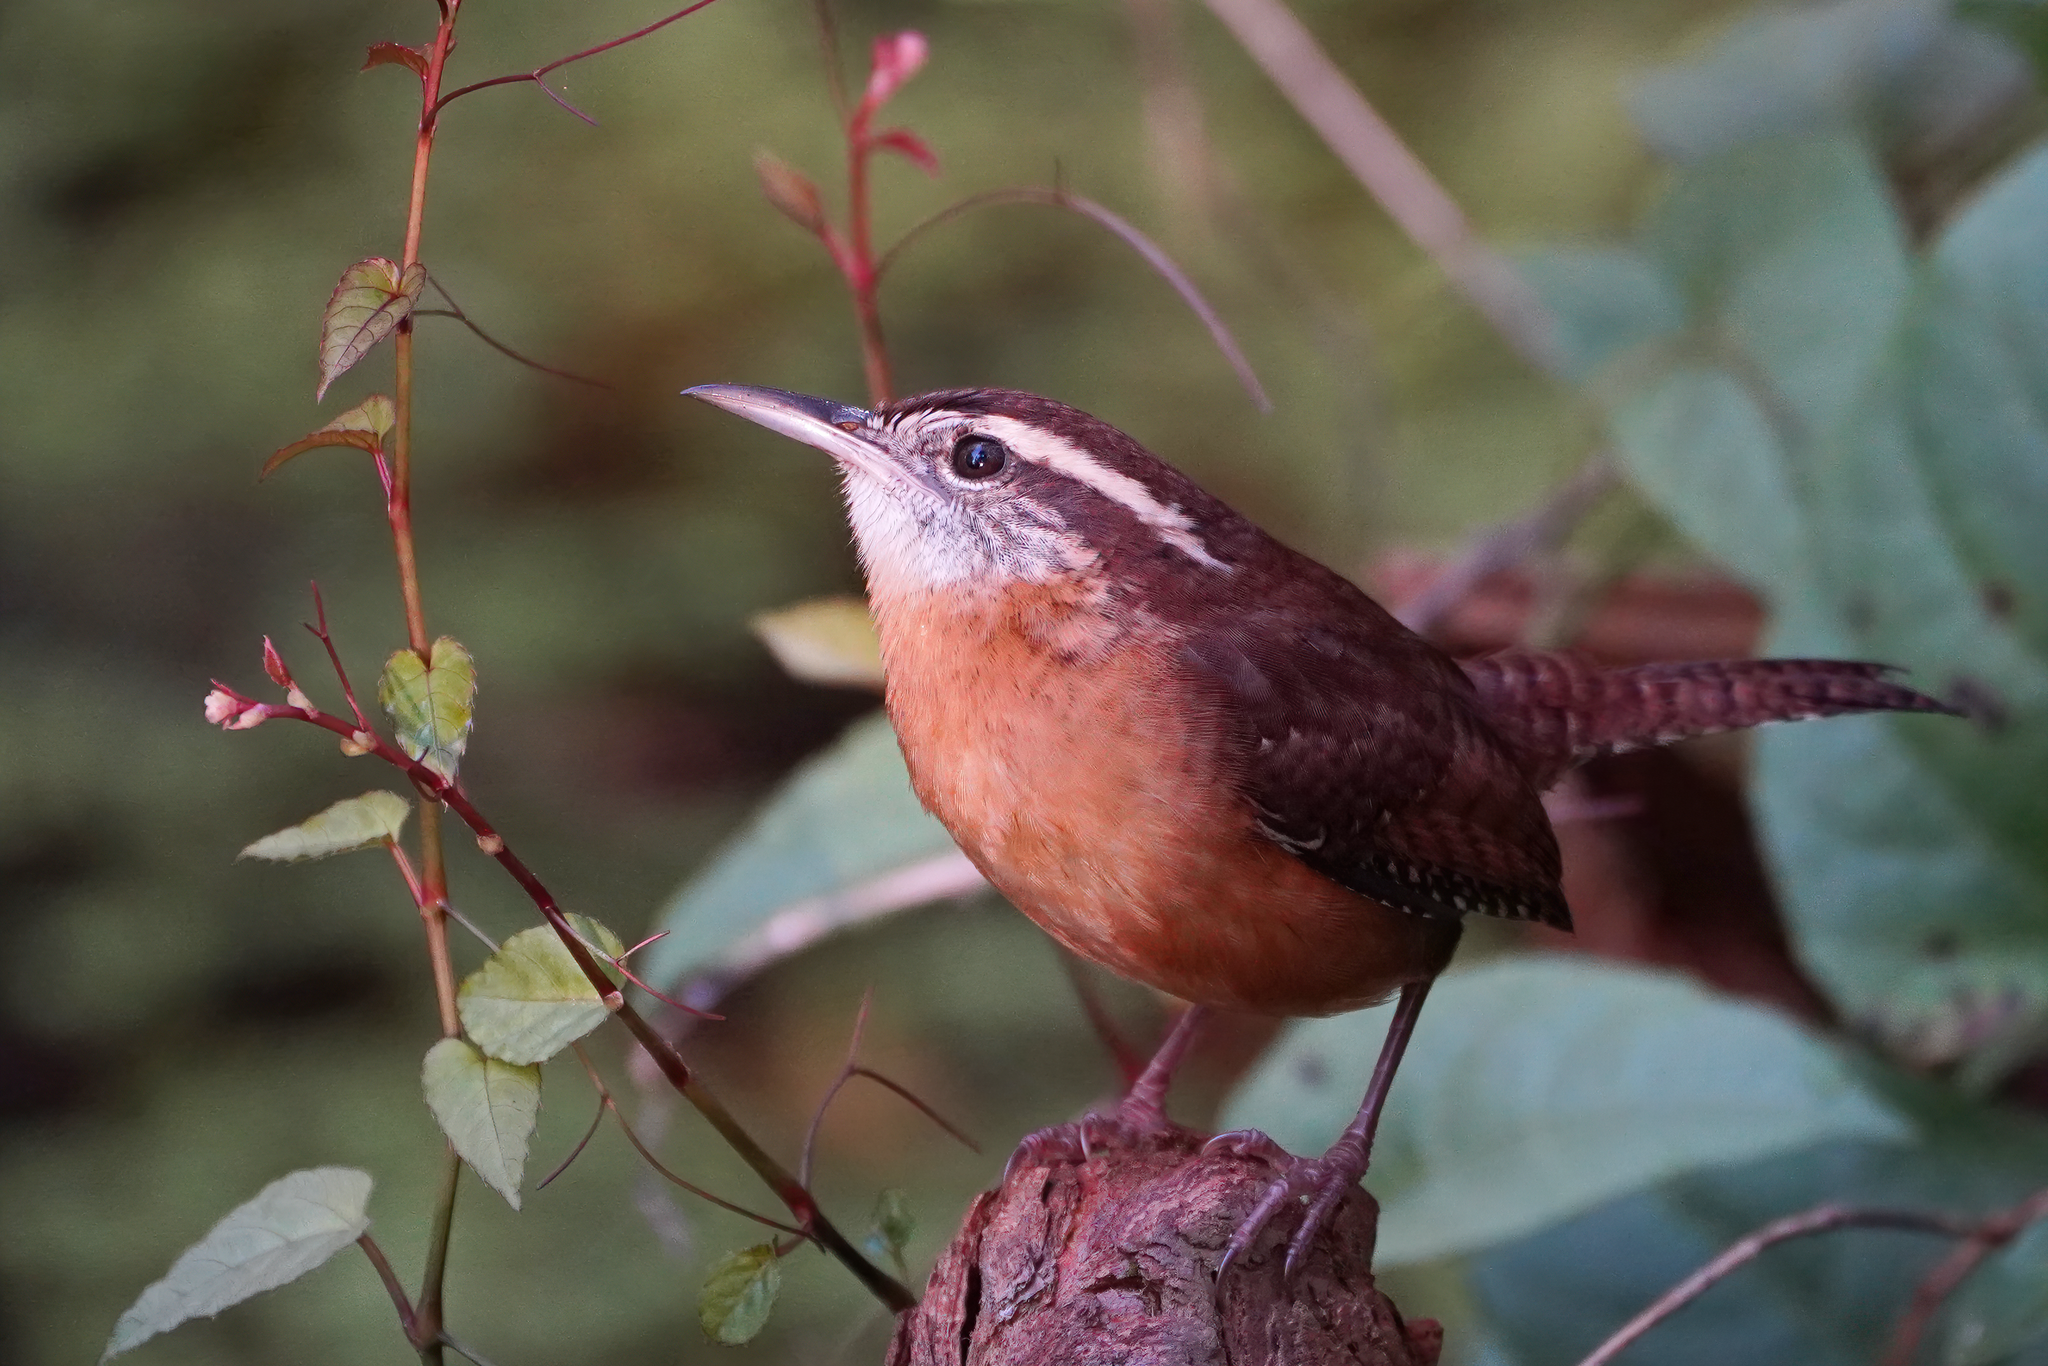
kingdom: Animalia
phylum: Chordata
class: Aves
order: Passeriformes
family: Troglodytidae
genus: Thryothorus
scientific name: Thryothorus ludovicianus
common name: Carolina wren
